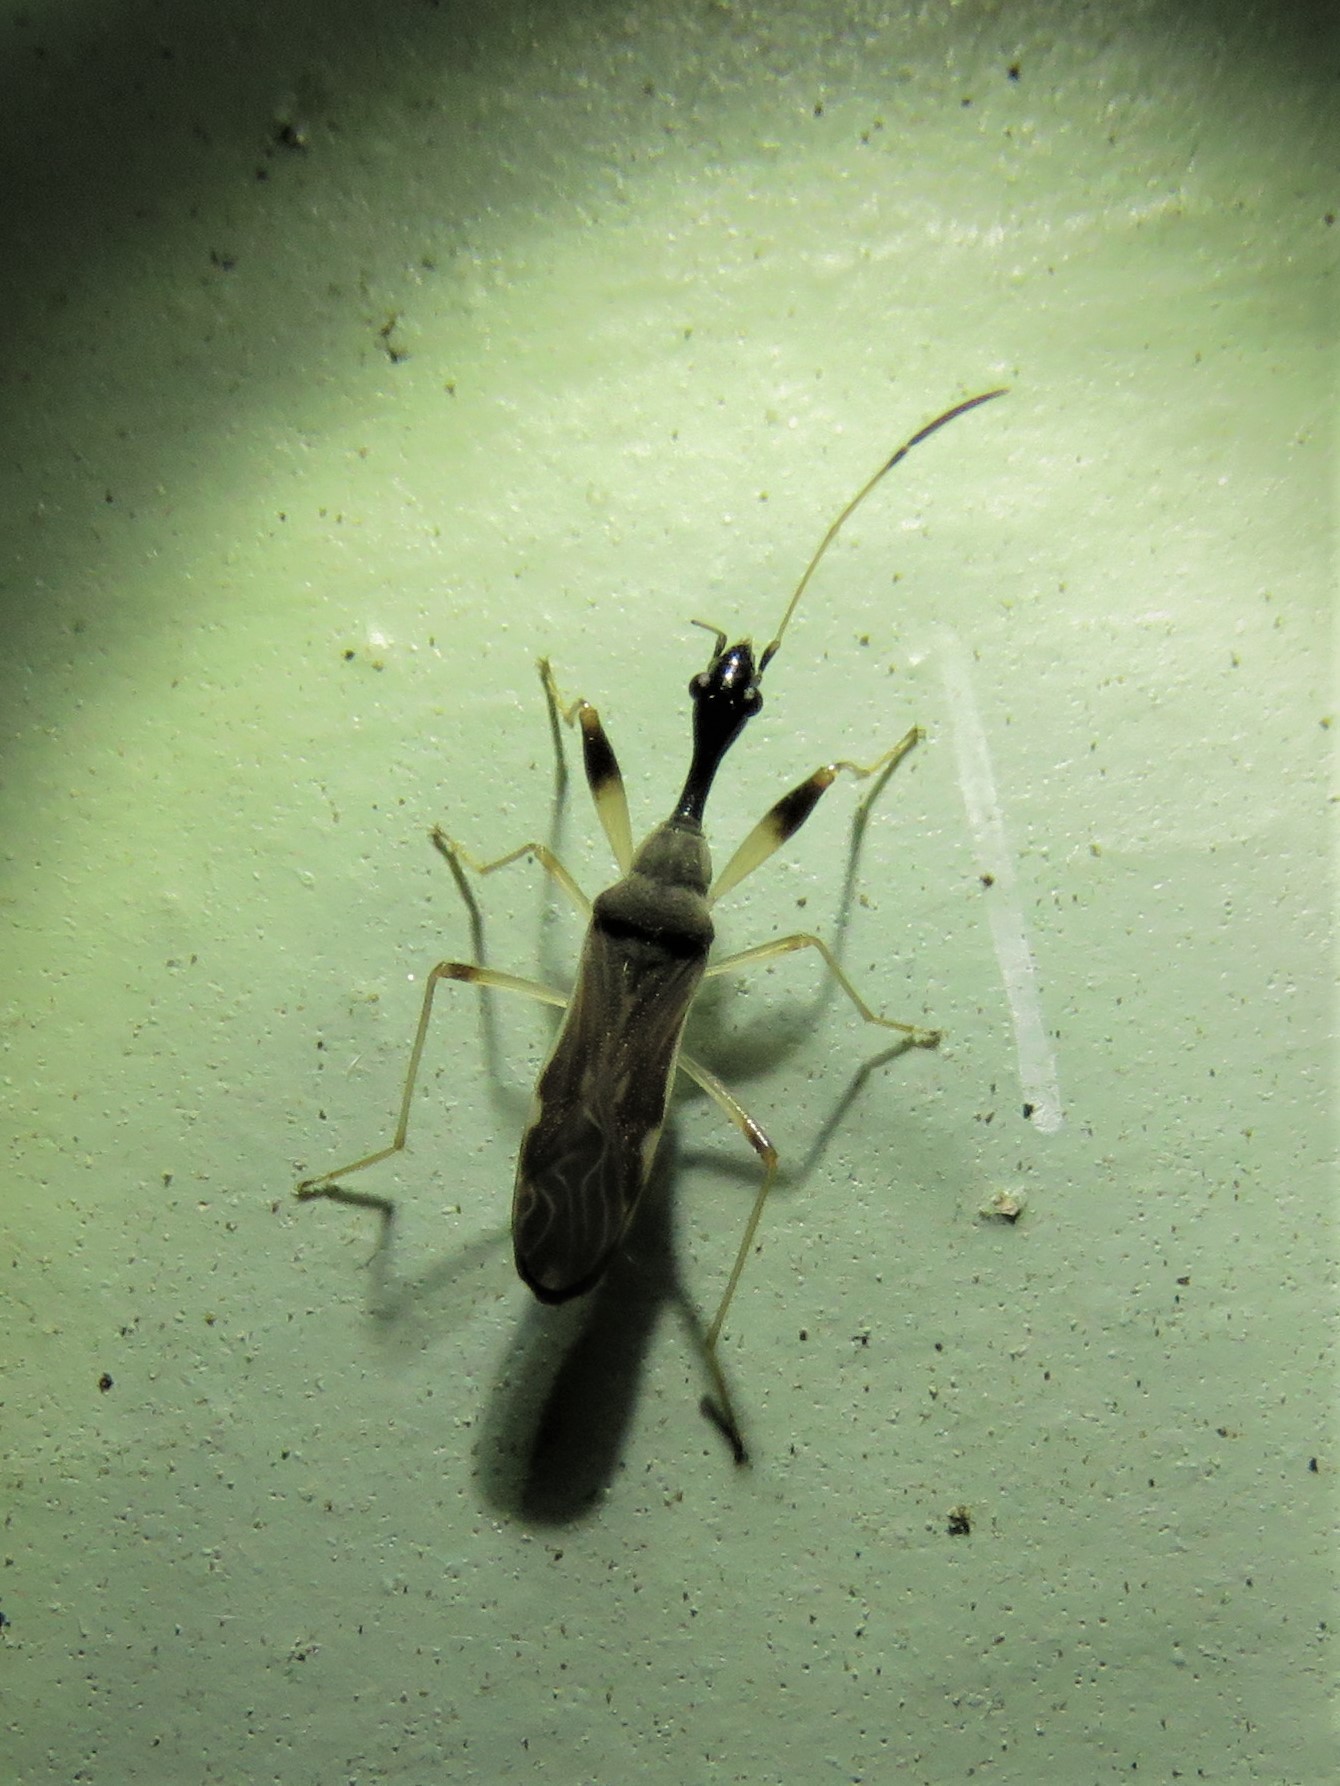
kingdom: Animalia
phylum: Arthropoda
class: Insecta
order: Hemiptera
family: Rhyparochromidae
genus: Myodocha
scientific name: Myodocha serripes
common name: Long-necked seed bug
